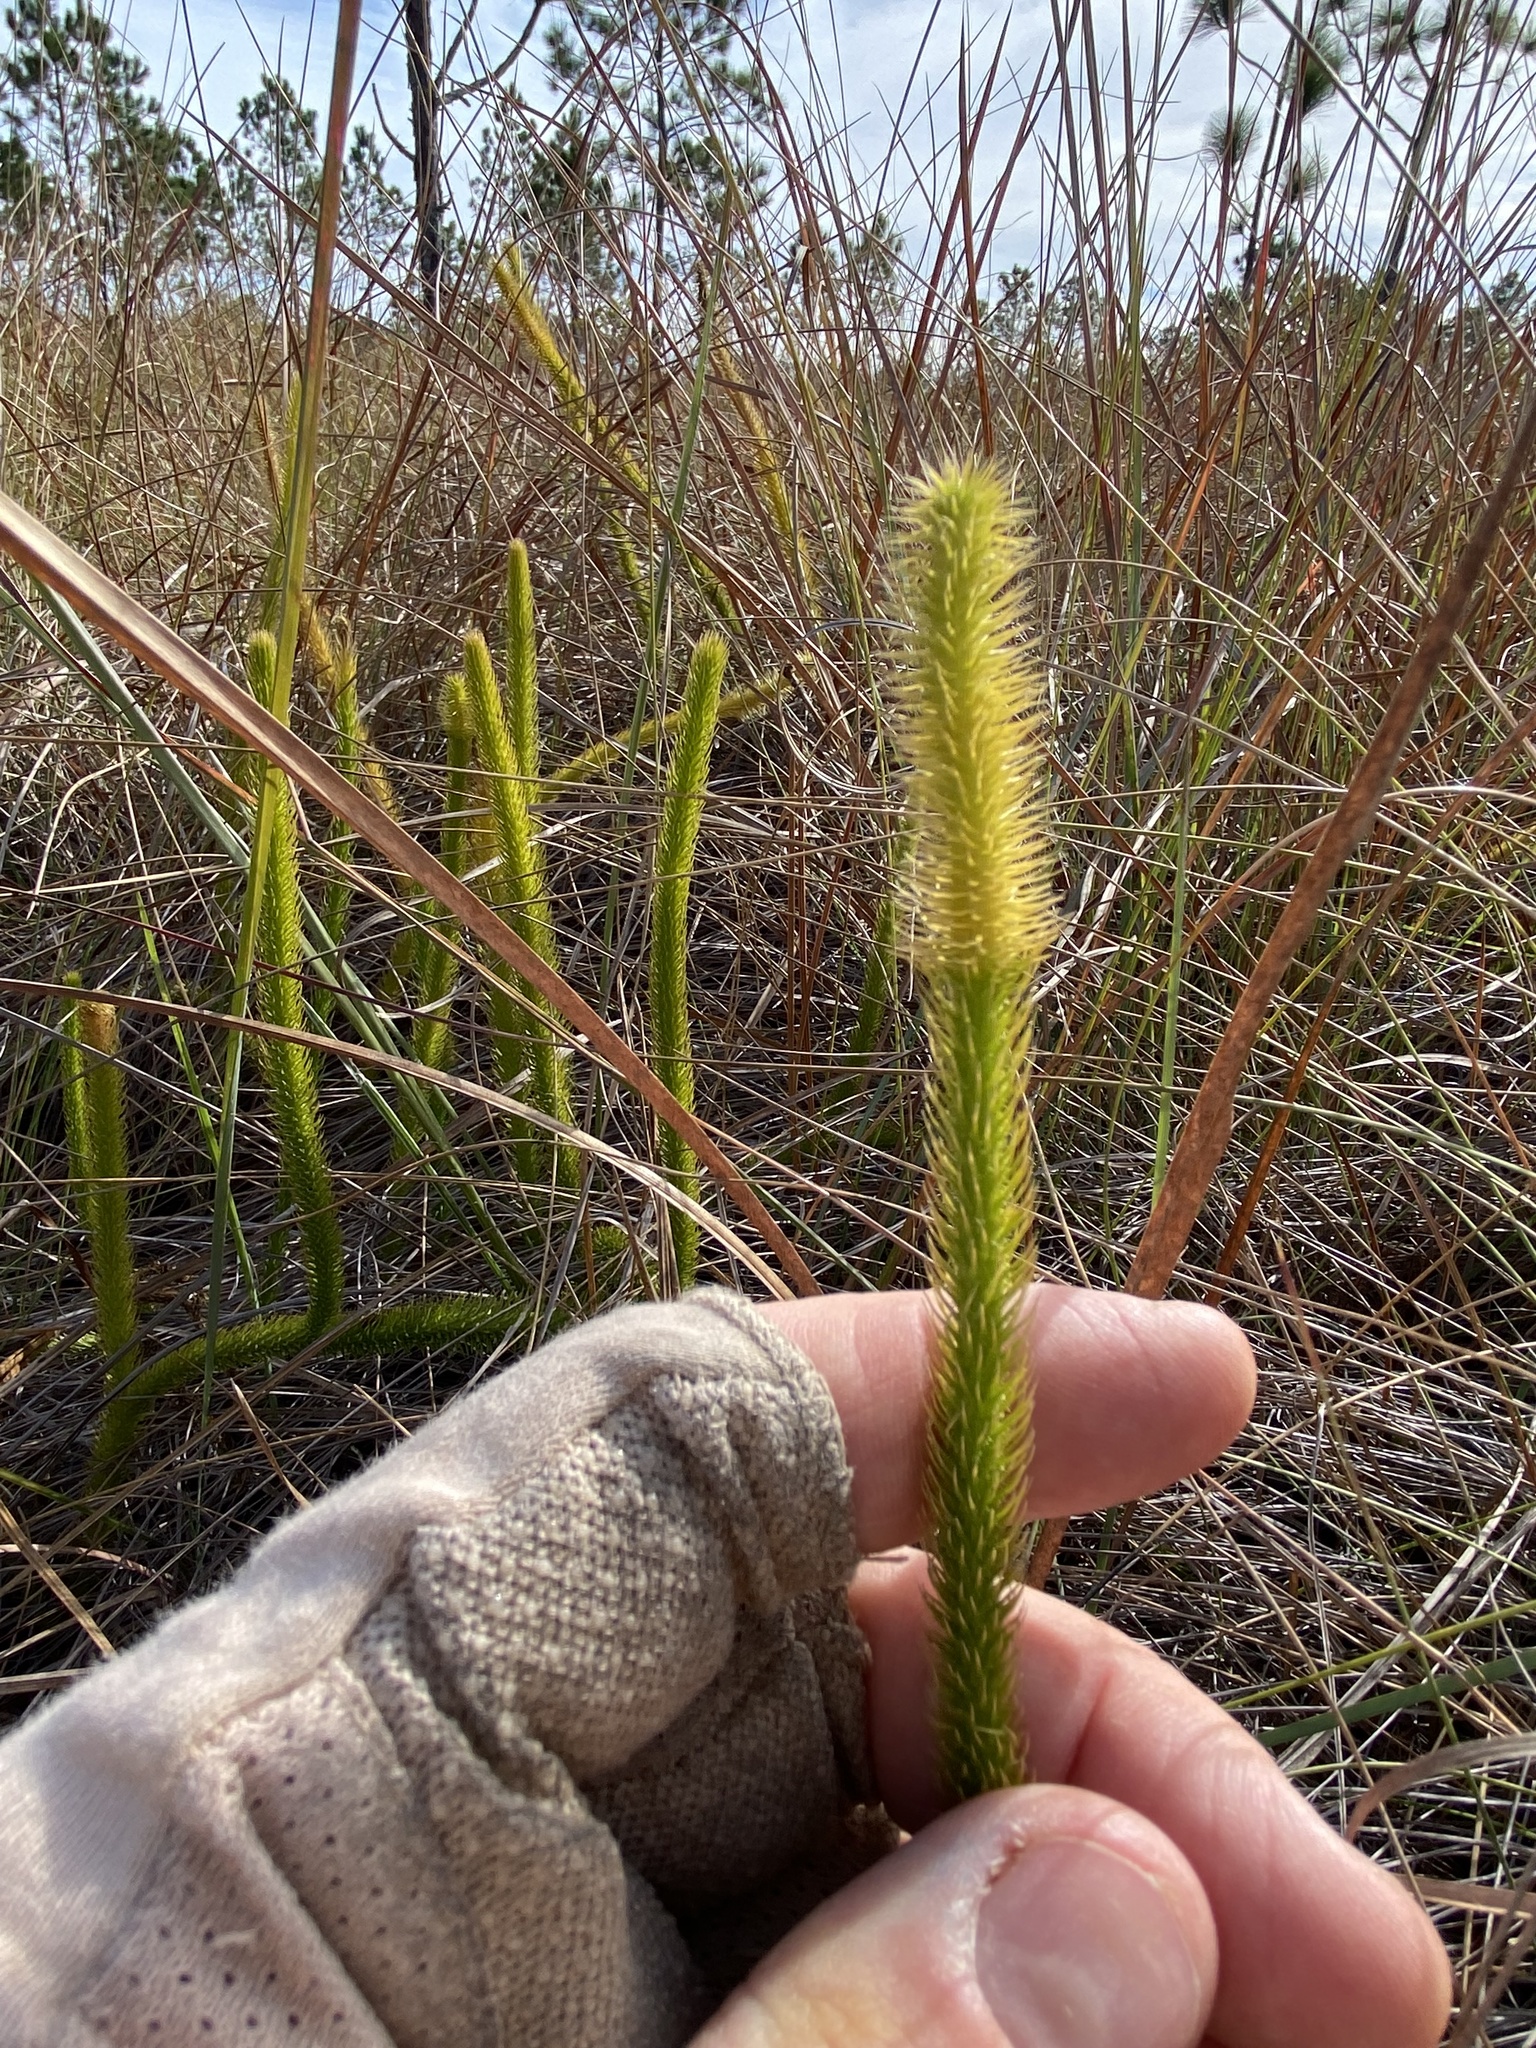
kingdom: Plantae
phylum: Tracheophyta
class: Lycopodiopsida
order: Lycopodiales
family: Lycopodiaceae
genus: Lycopodiella
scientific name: Lycopodiella alopecuroides
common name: Foxtail clubmoss
